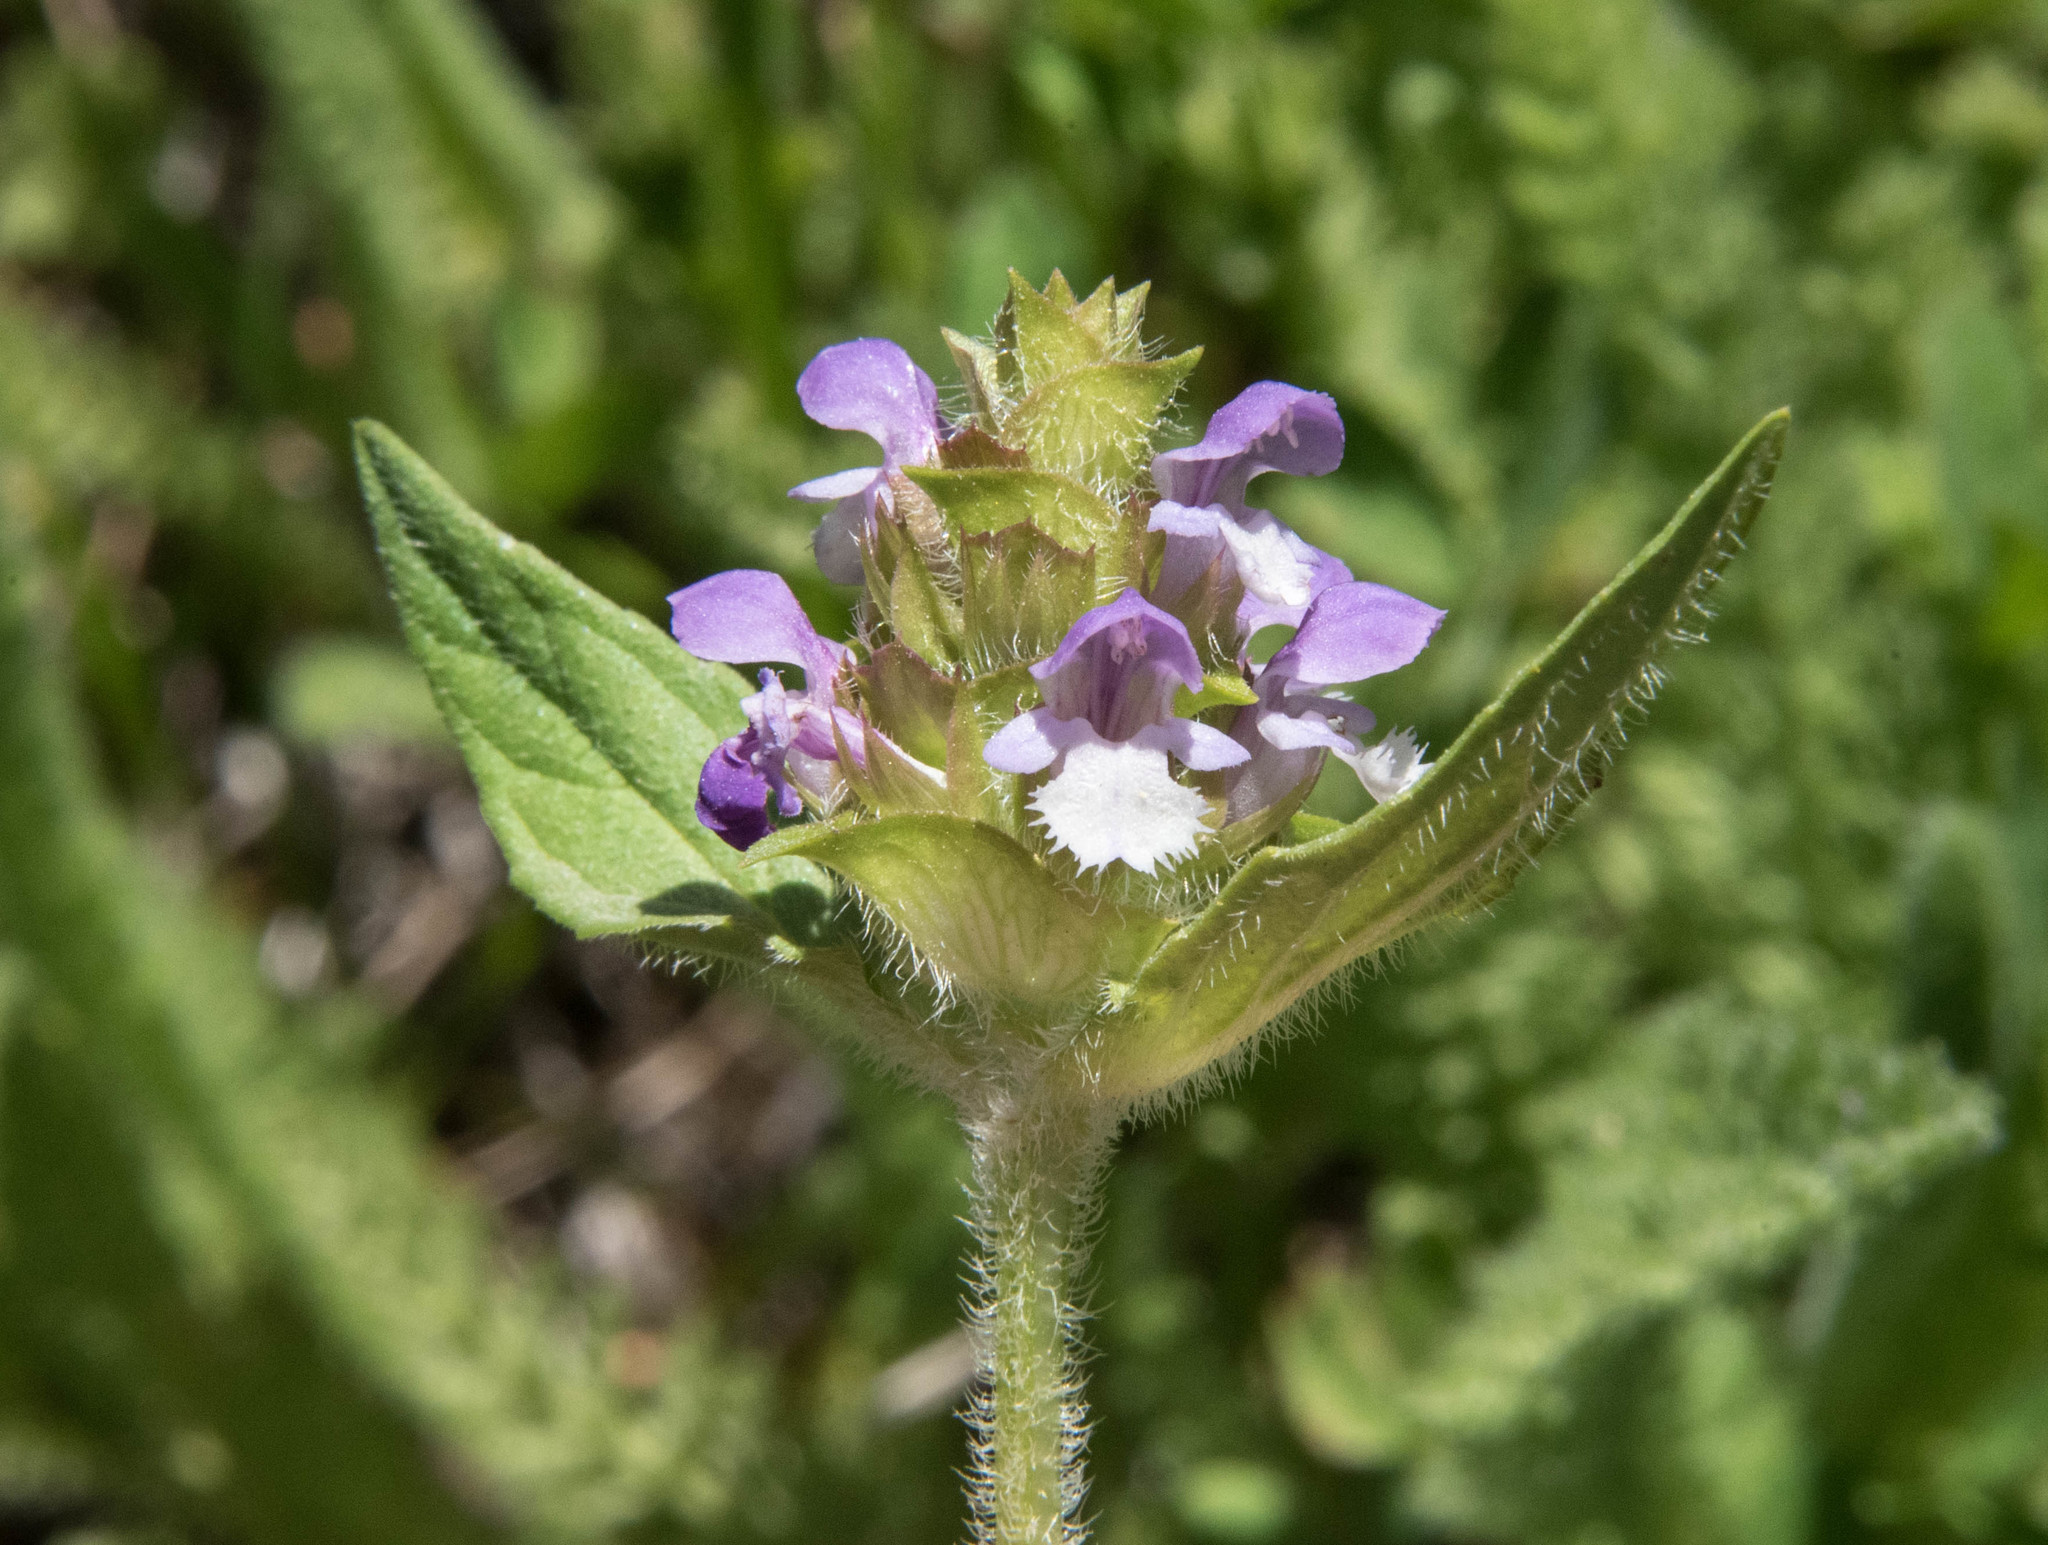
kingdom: Plantae
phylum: Tracheophyta
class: Magnoliopsida
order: Lamiales
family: Lamiaceae
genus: Prunella
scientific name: Prunella vulgaris
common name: Heal-all
